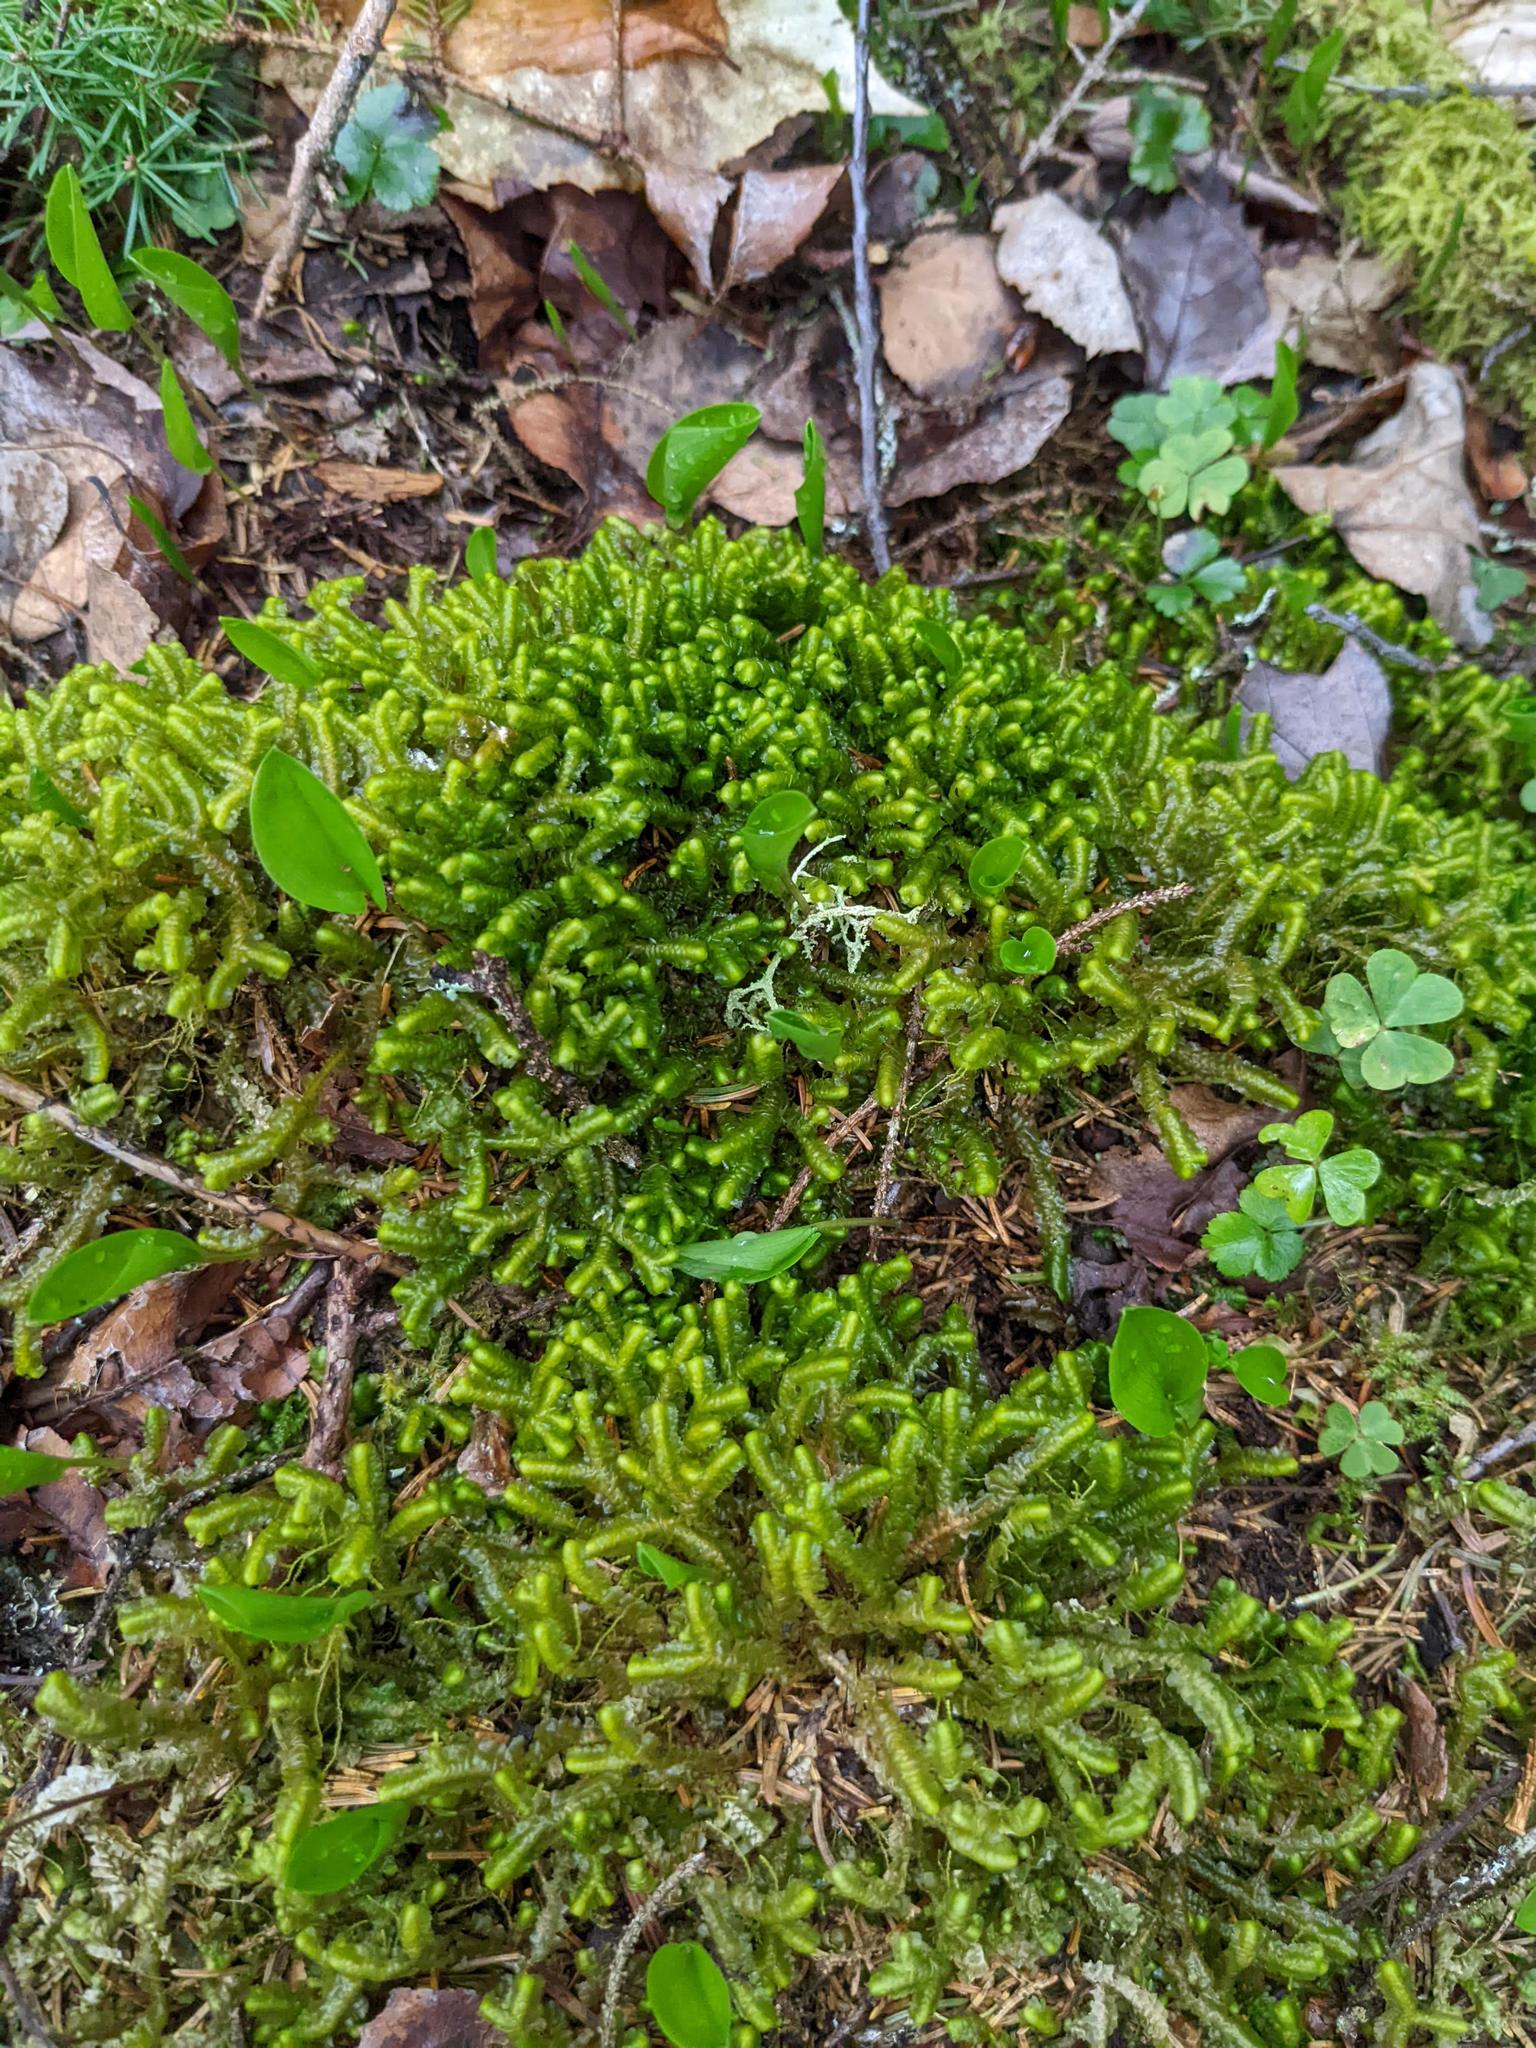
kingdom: Plantae
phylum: Marchantiophyta
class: Jungermanniopsida
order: Jungermanniales
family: Lepidoziaceae
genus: Bazzania
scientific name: Bazzania trilobata
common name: Three-lobed whipwort
